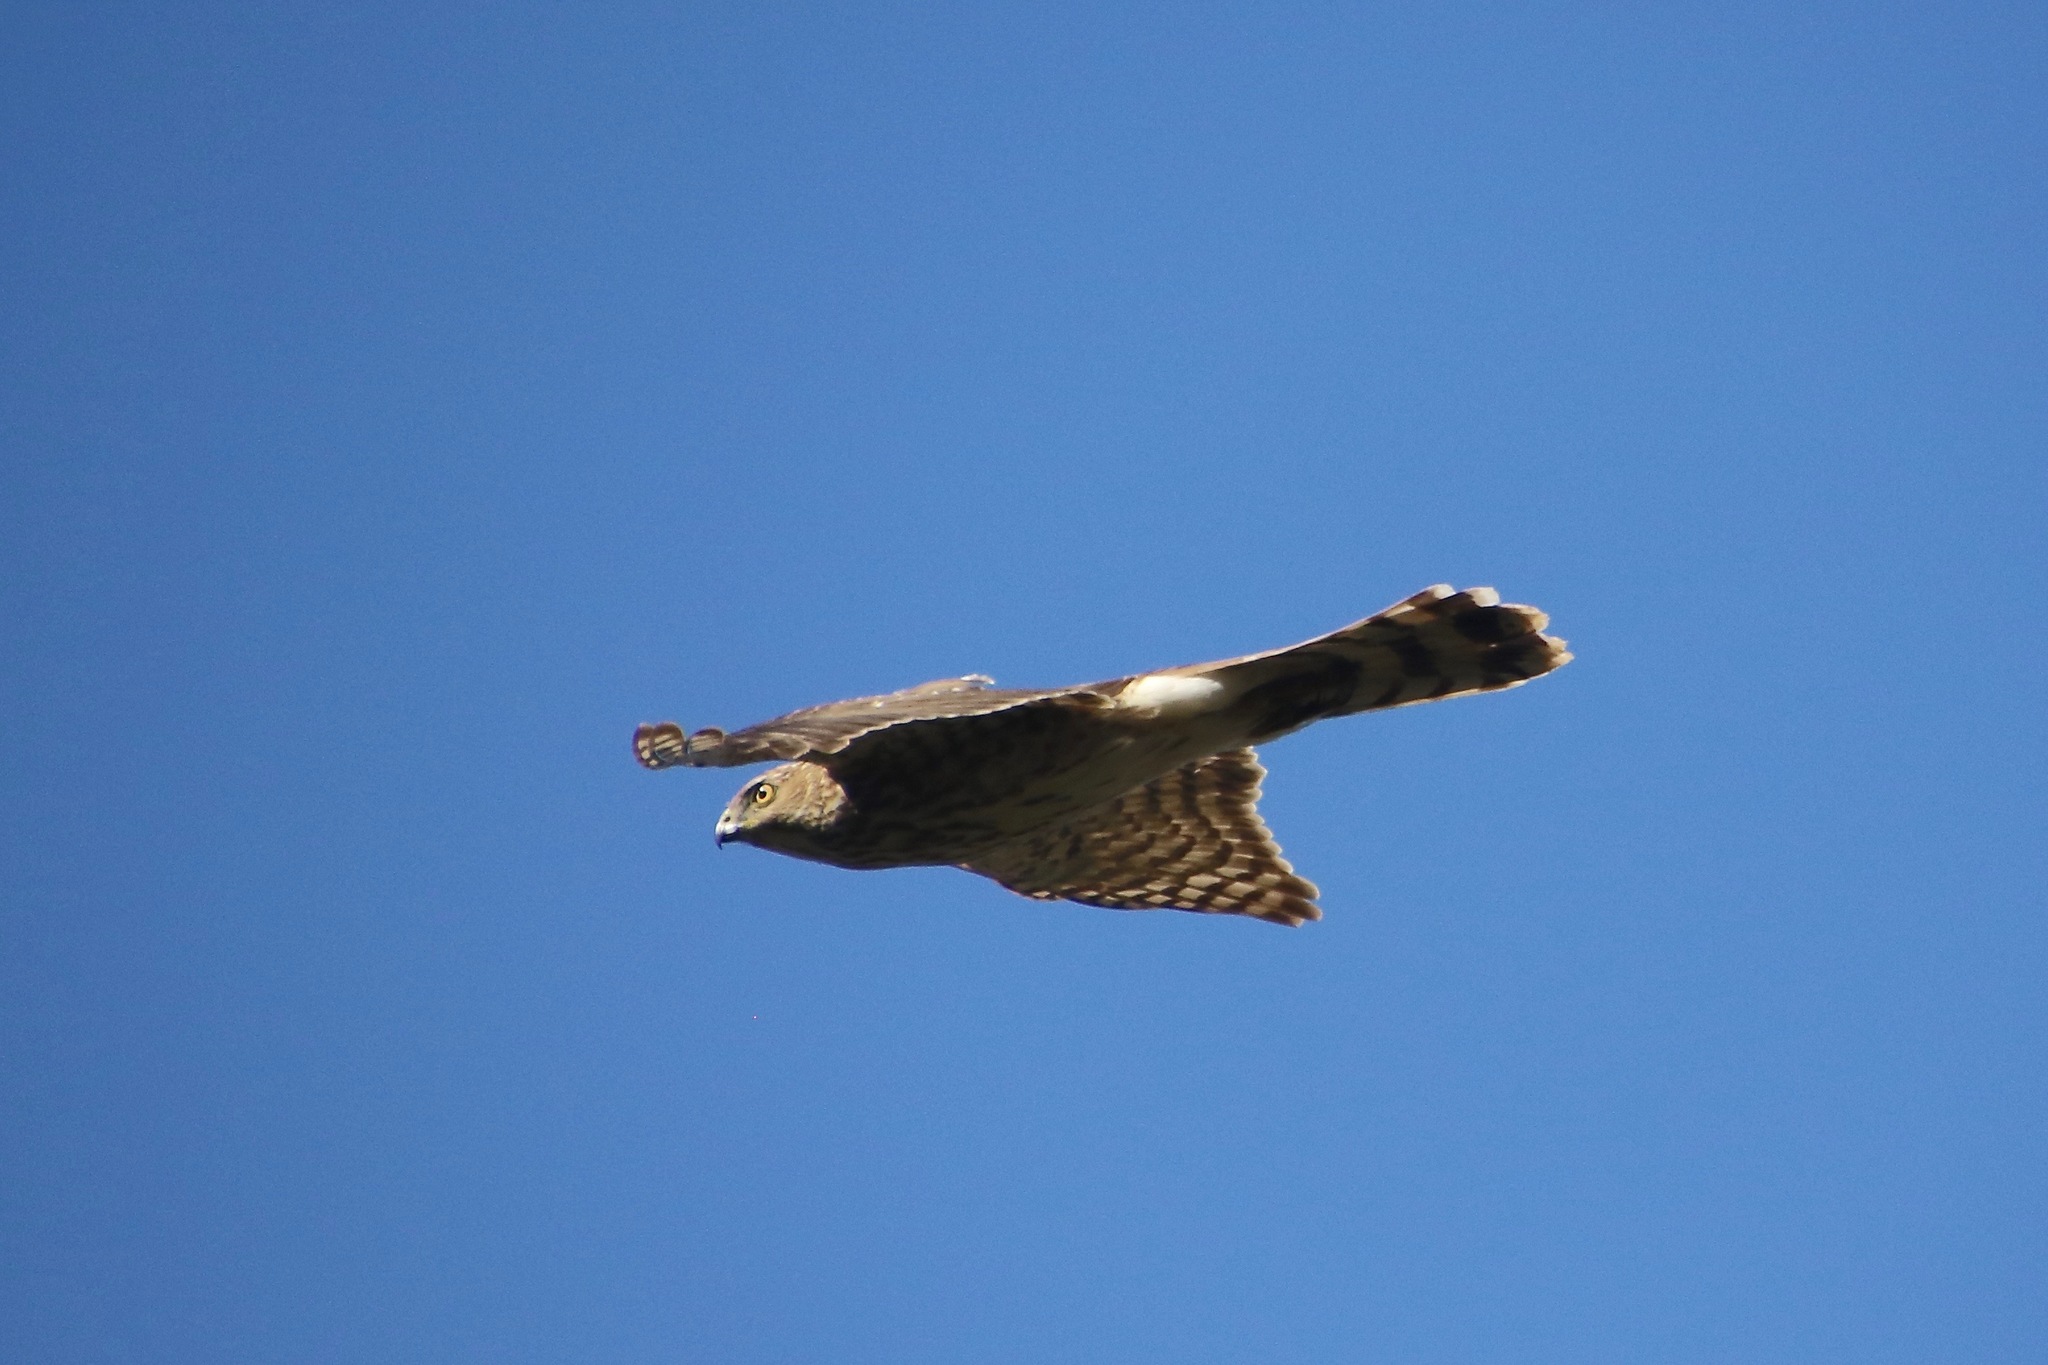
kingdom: Animalia
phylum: Chordata
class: Aves
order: Accipitriformes
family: Accipitridae
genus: Accipiter
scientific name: Accipiter cooperii
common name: Cooper's hawk
